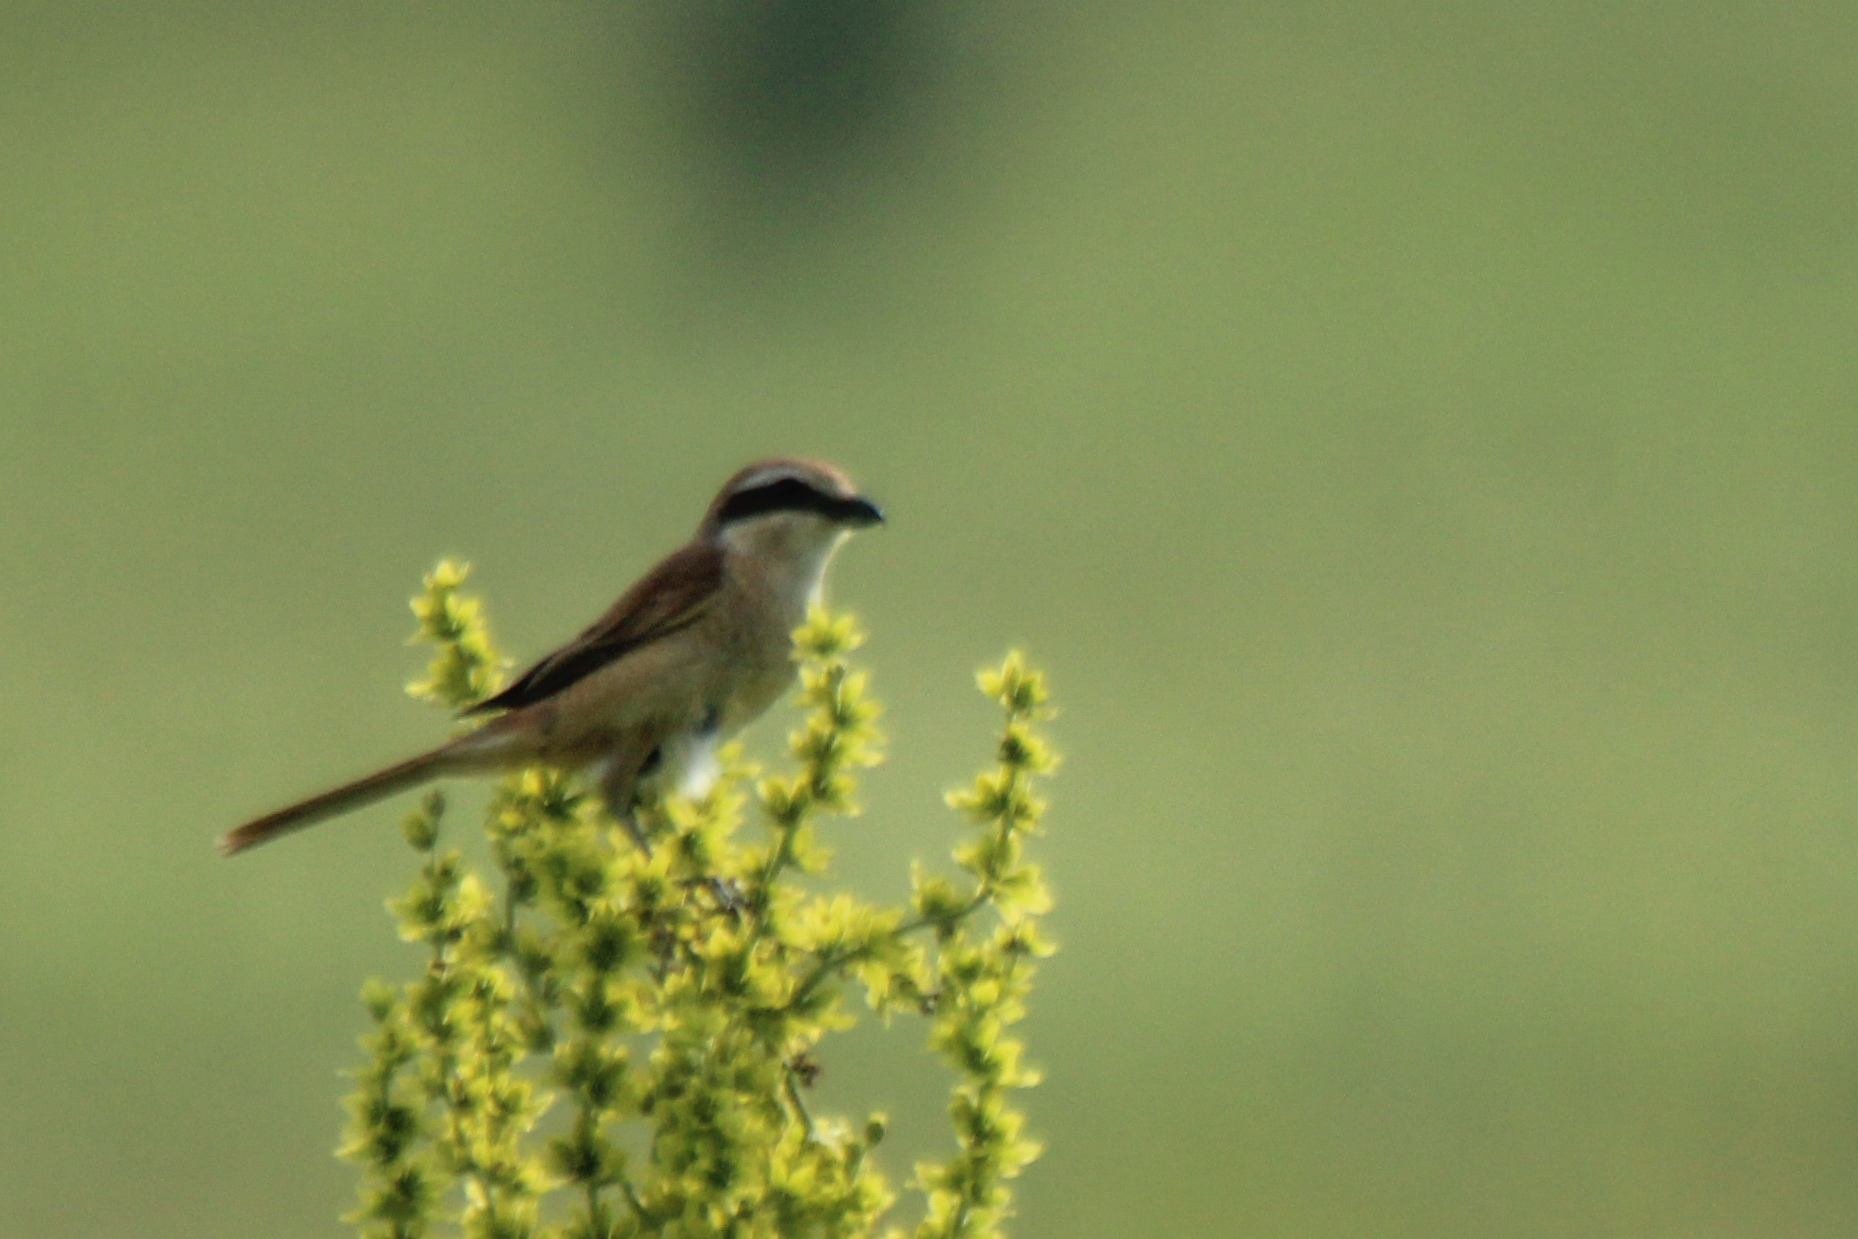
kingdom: Animalia
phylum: Chordata
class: Aves
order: Passeriformes
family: Laniidae
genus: Lanius
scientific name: Lanius cristatus
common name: Brown shrike
